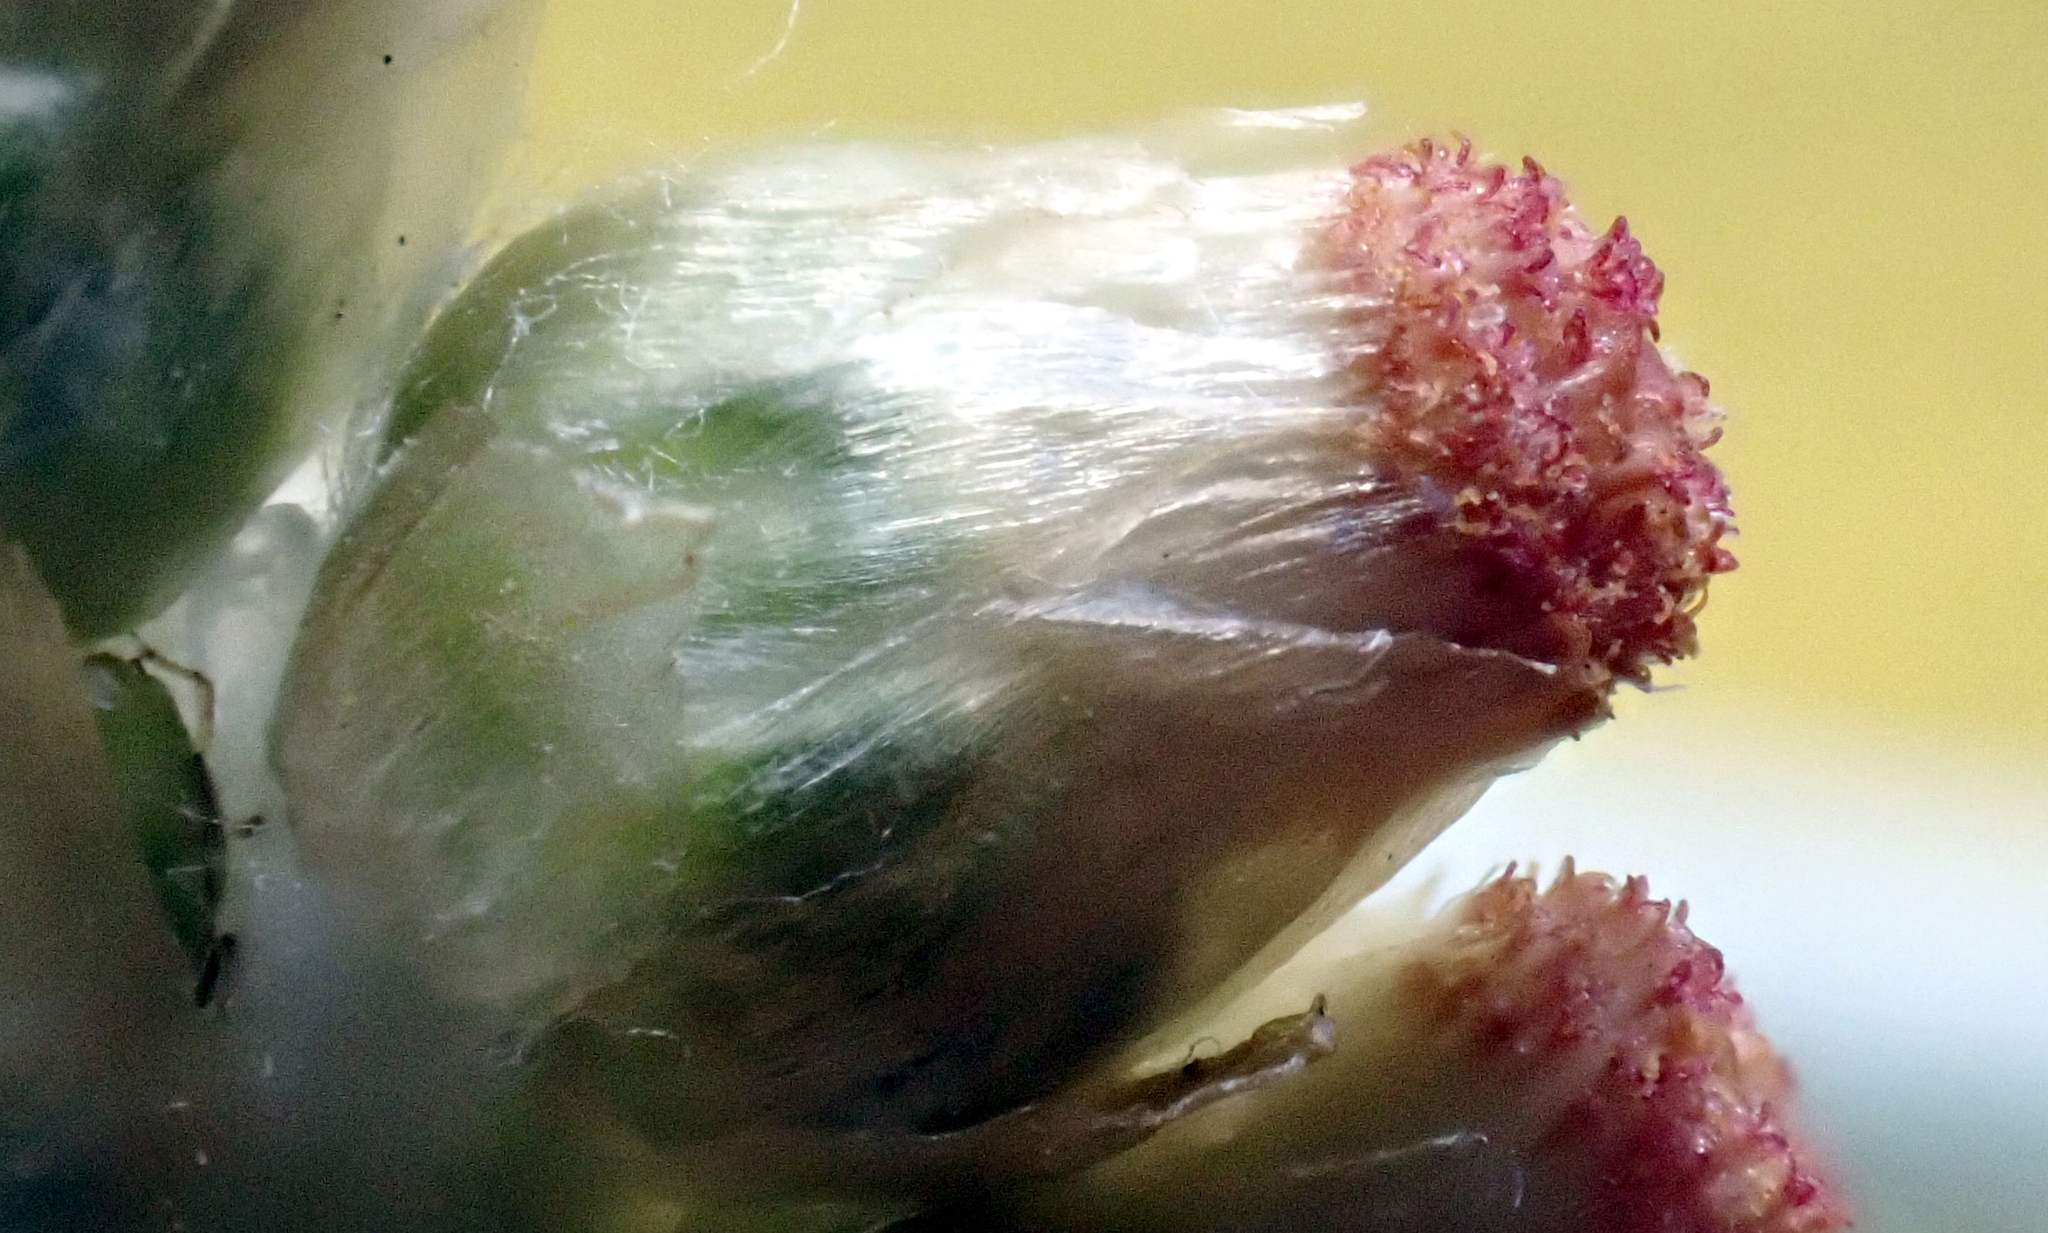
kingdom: Plantae
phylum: Tracheophyta
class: Magnoliopsida
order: Asterales
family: Asteraceae
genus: Helichrysum
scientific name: Helichrysum luteoalbum
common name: Daisy
